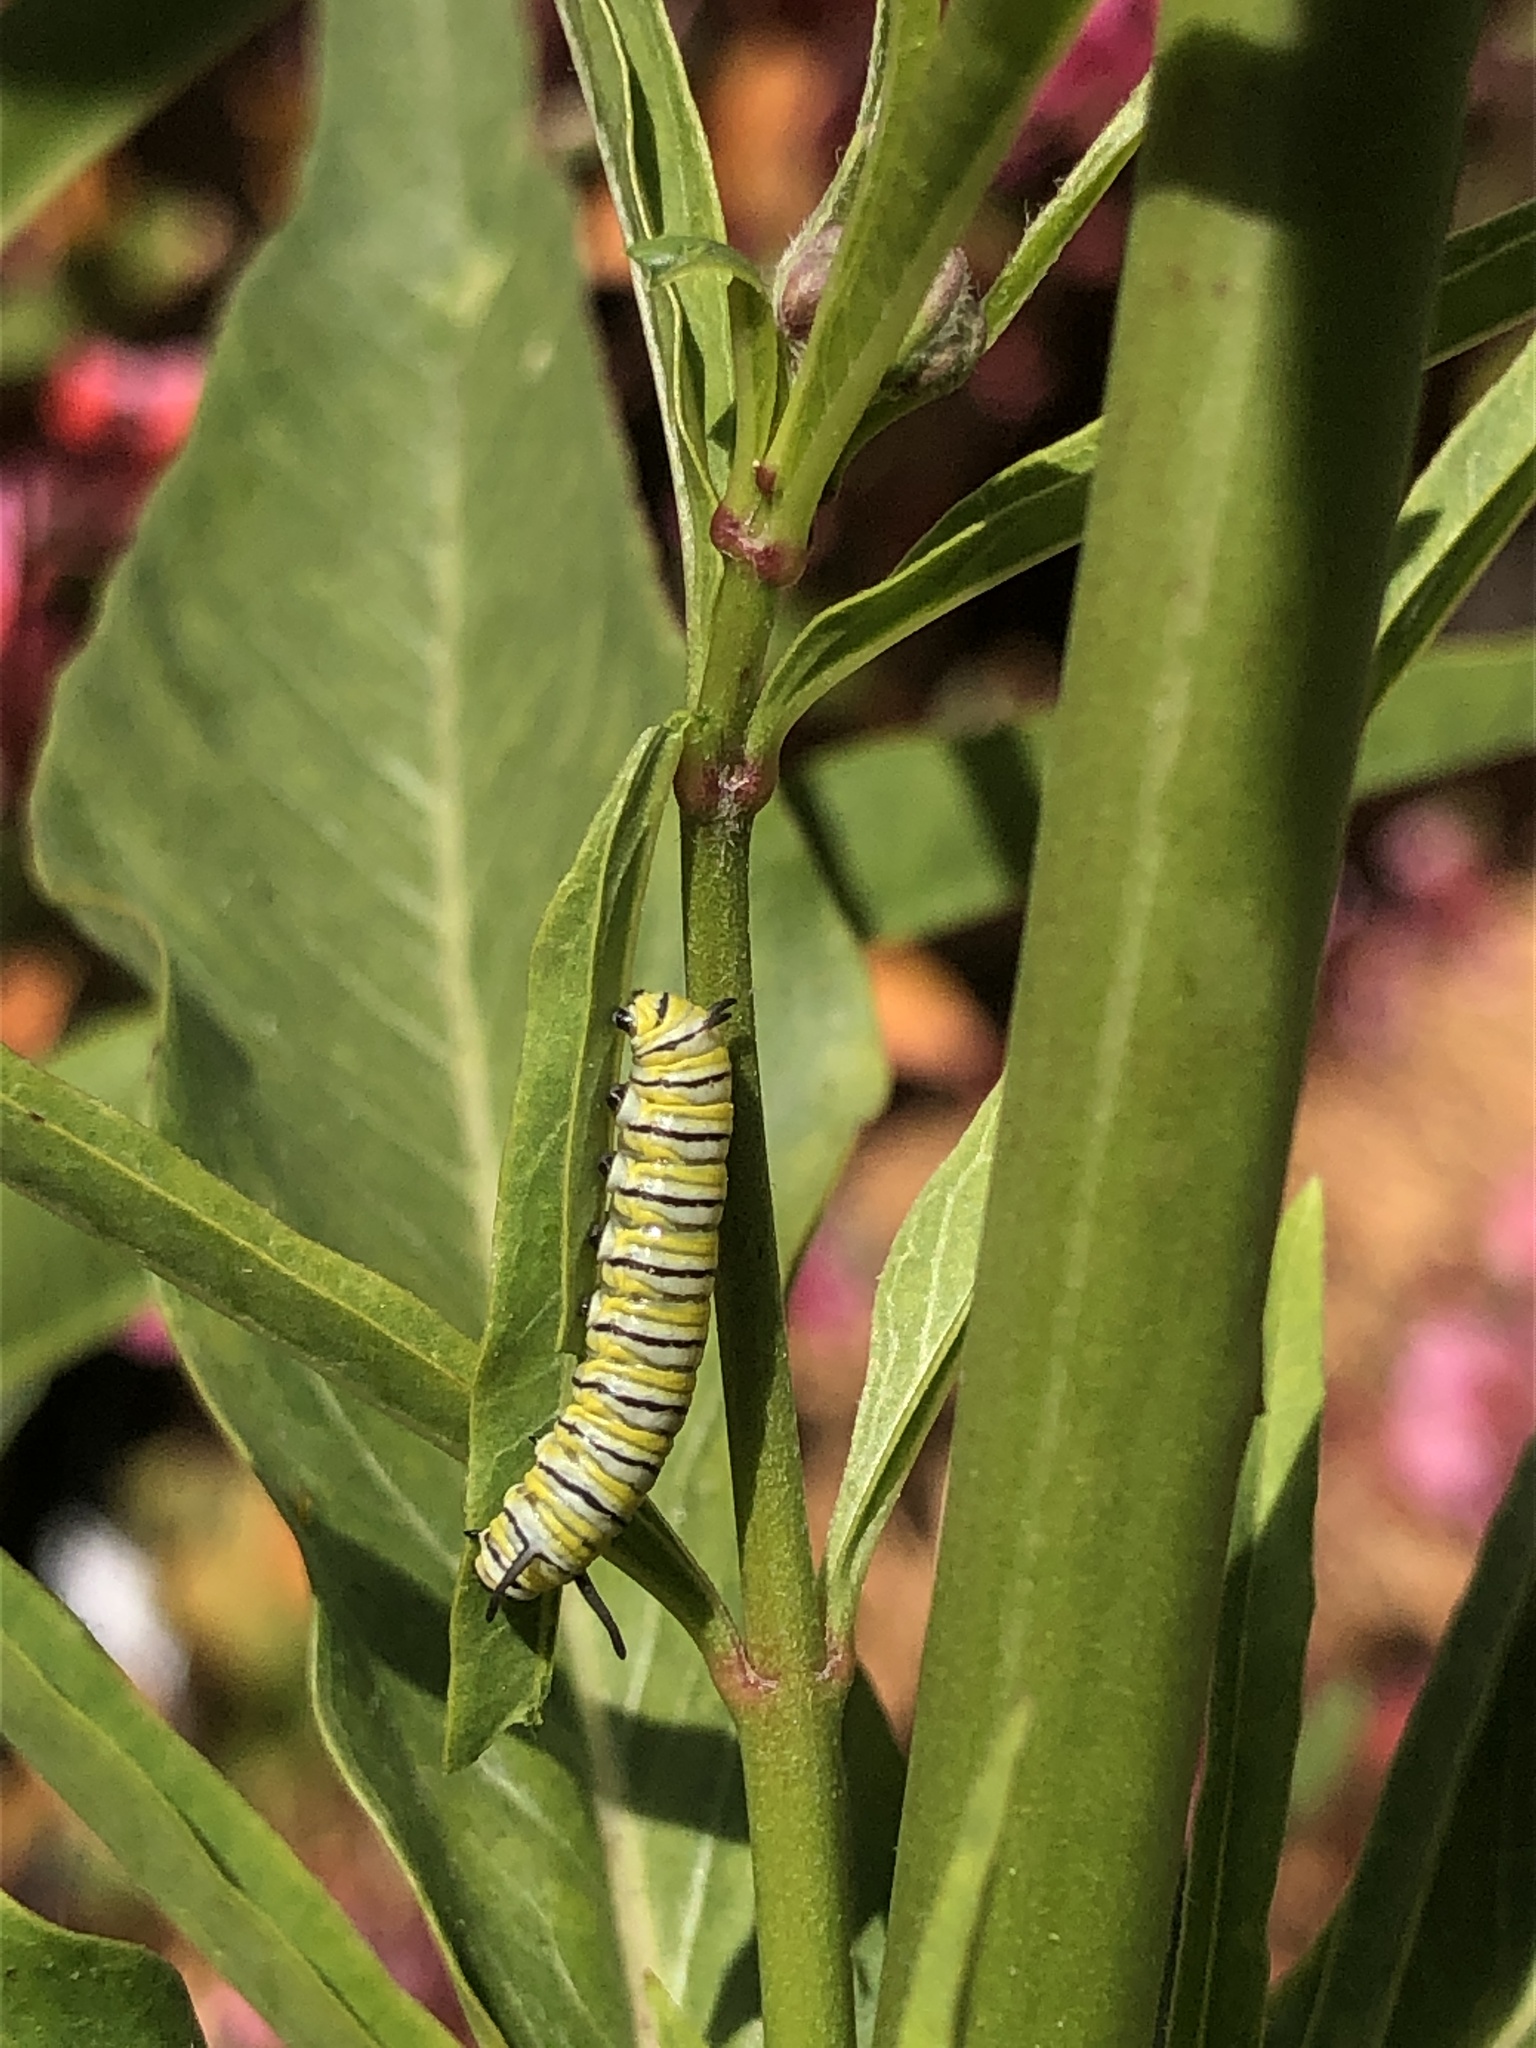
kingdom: Animalia
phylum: Arthropoda
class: Insecta
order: Lepidoptera
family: Nymphalidae
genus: Danaus
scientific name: Danaus plexippus
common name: Monarch
